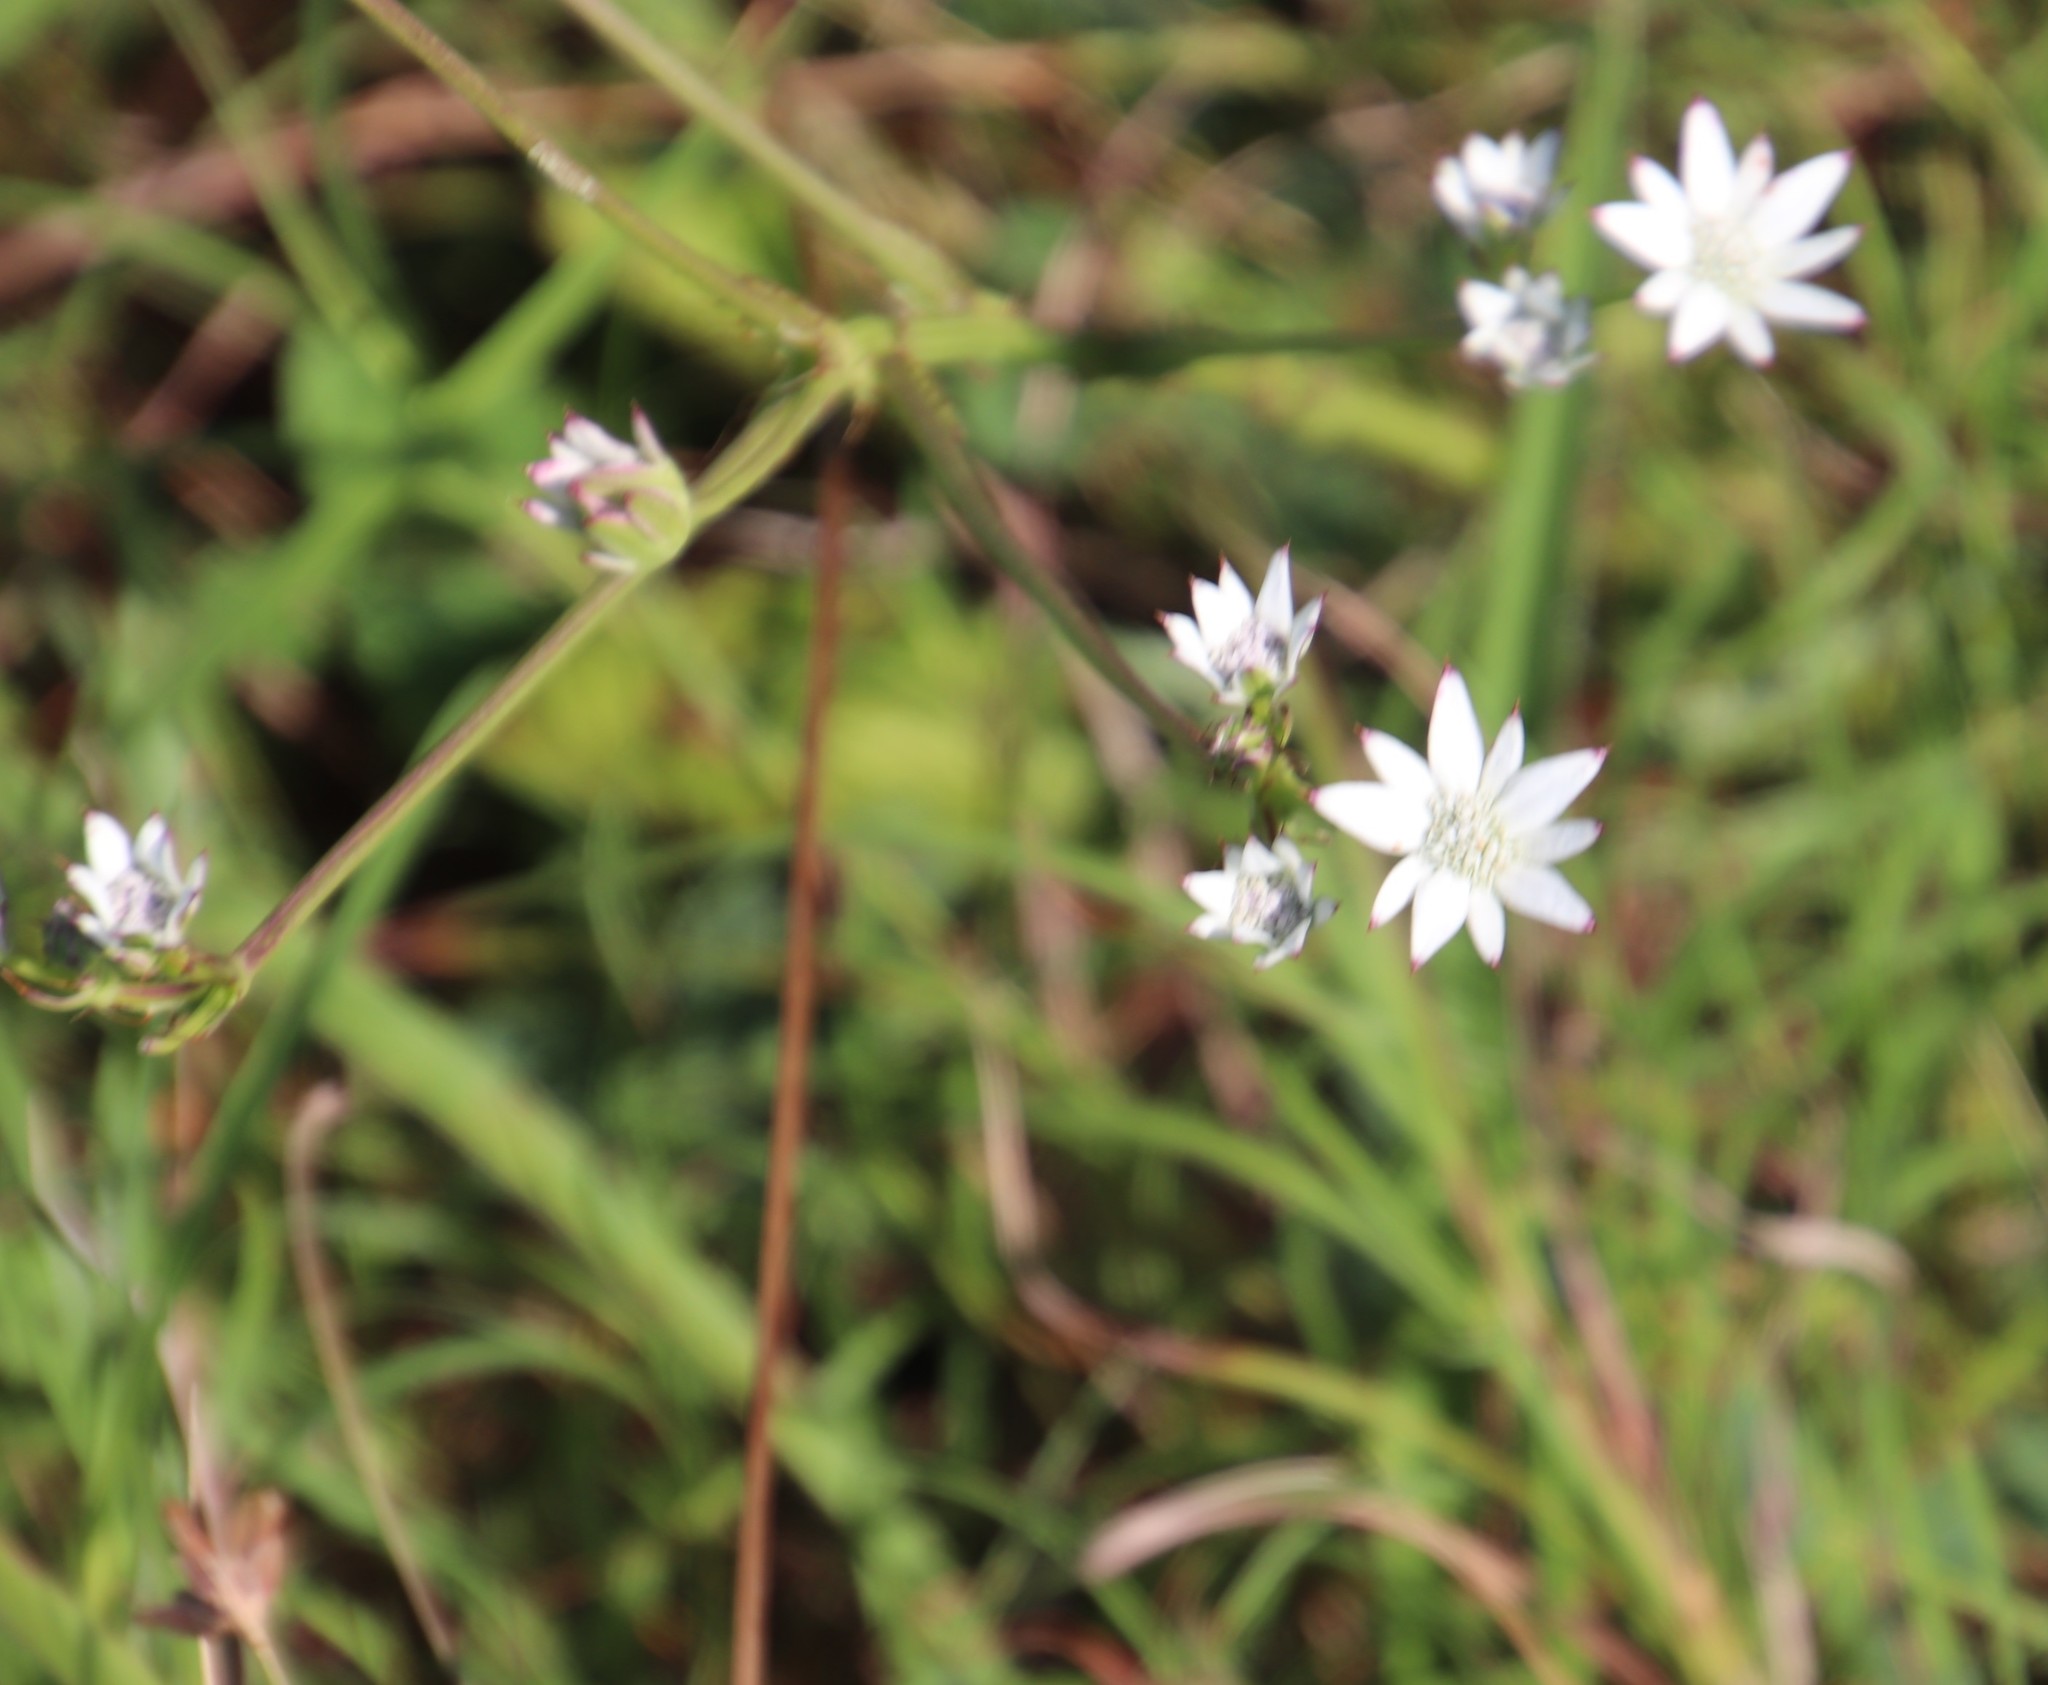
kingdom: Plantae
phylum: Tracheophyta
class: Magnoliopsida
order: Apiales
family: Apiaceae
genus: Alepidea
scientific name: Alepidea peduncularis
